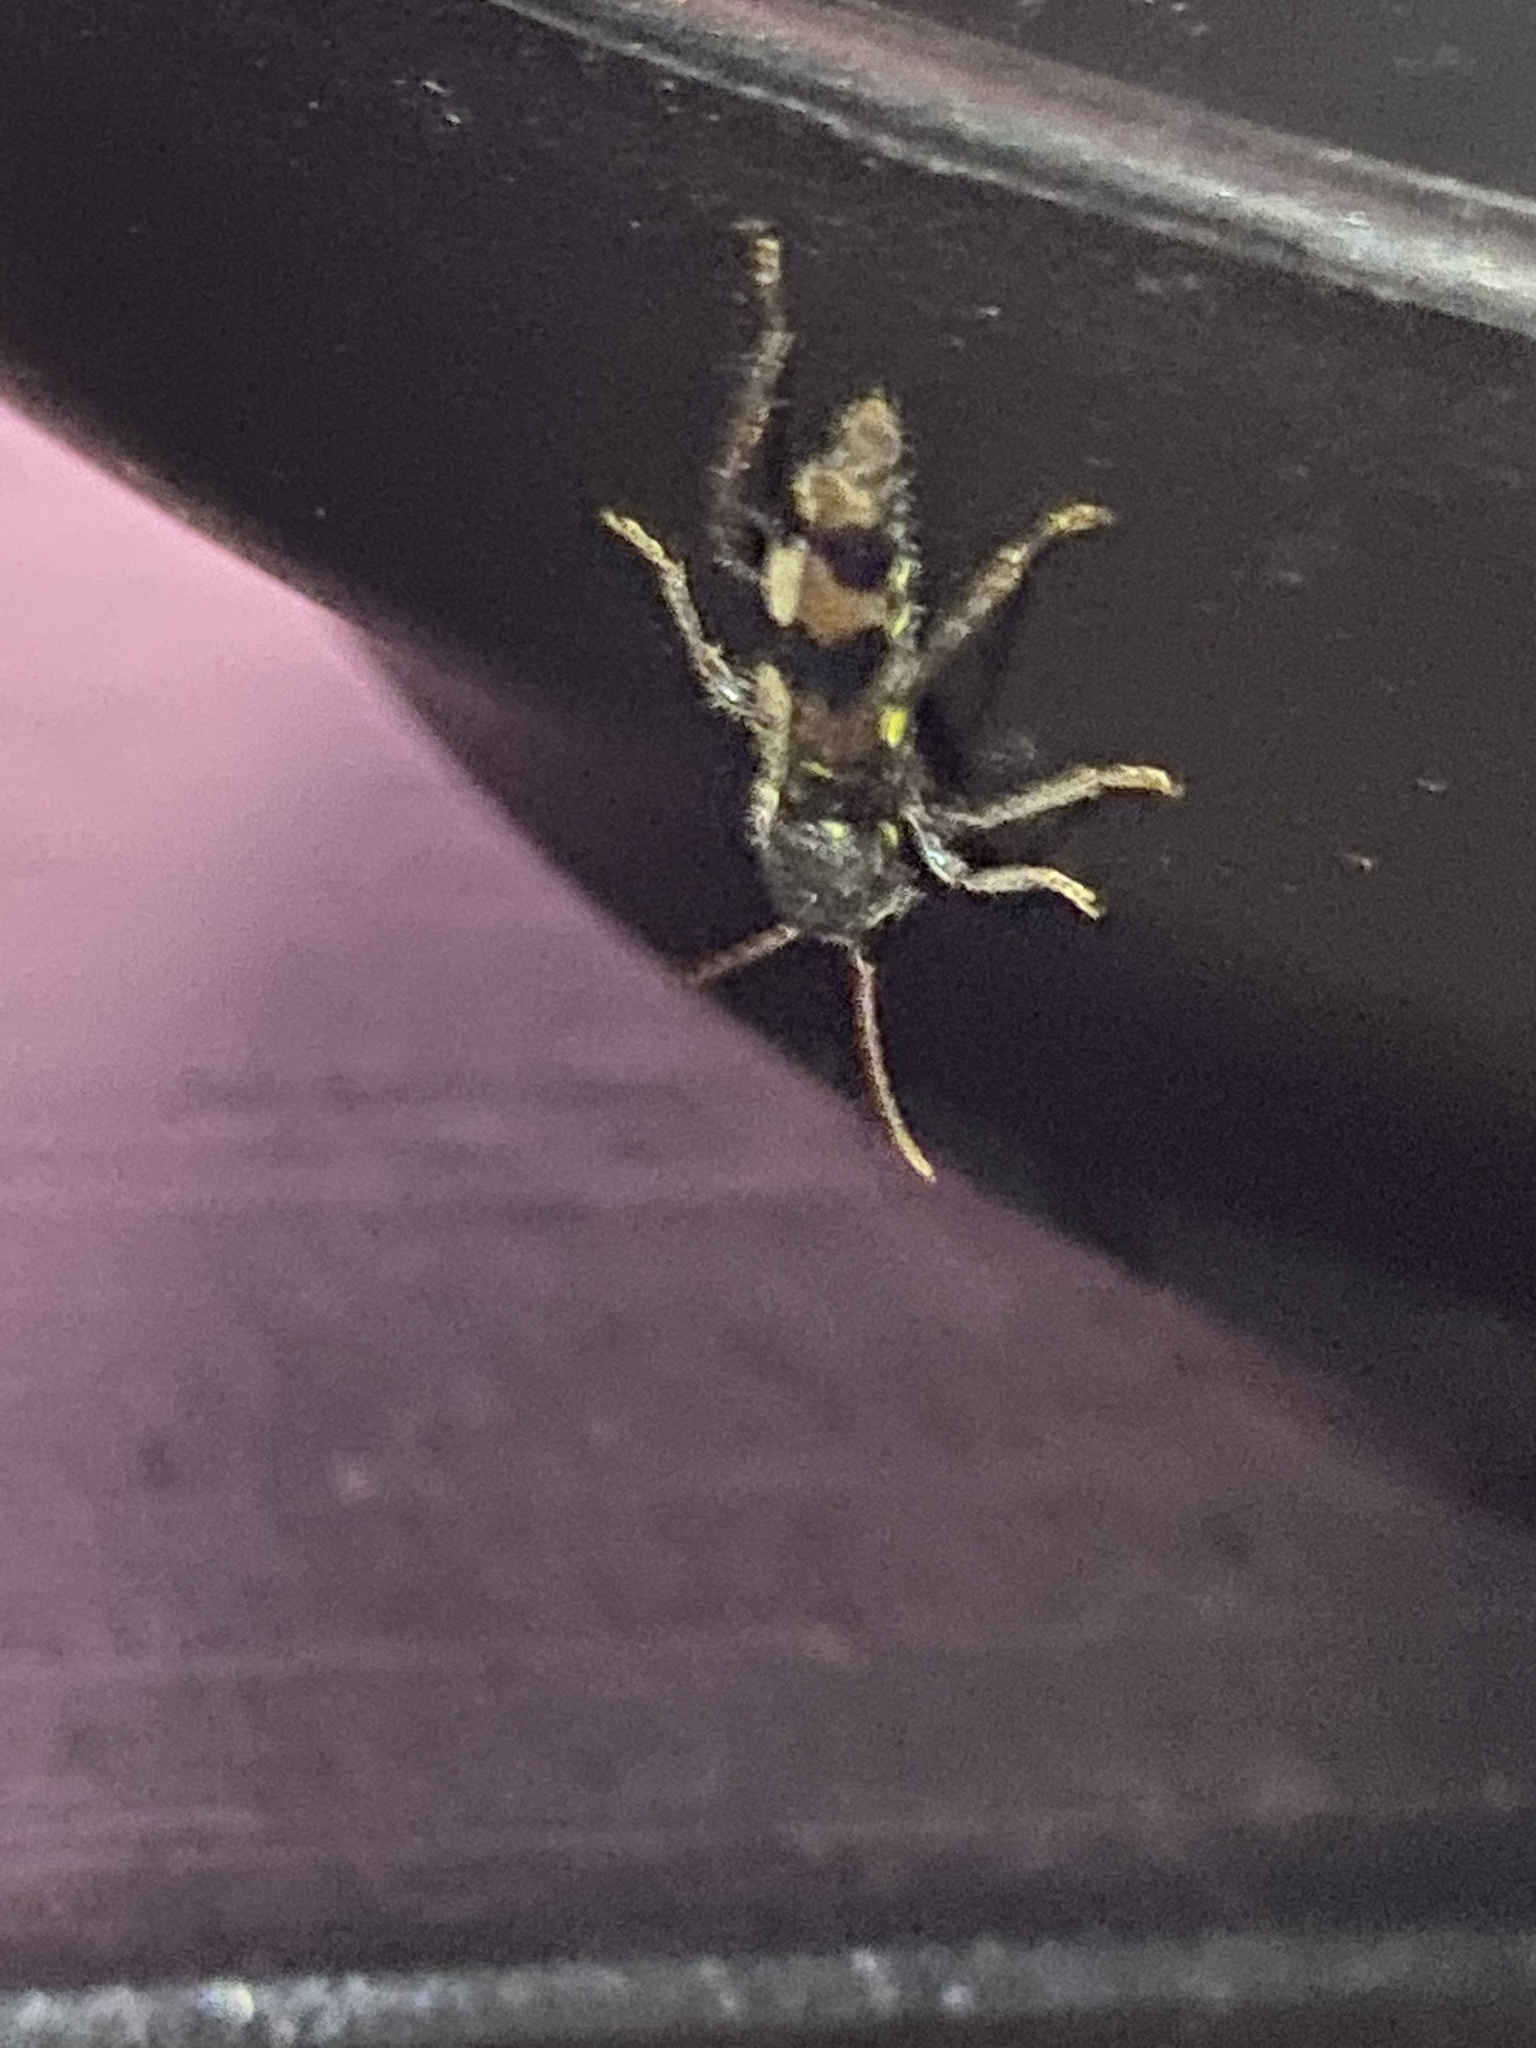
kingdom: Animalia
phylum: Arthropoda
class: Insecta
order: Coleoptera
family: Cerambycidae
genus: Xylotrechus
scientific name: Xylotrechus colonus
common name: Long-horned beetle
